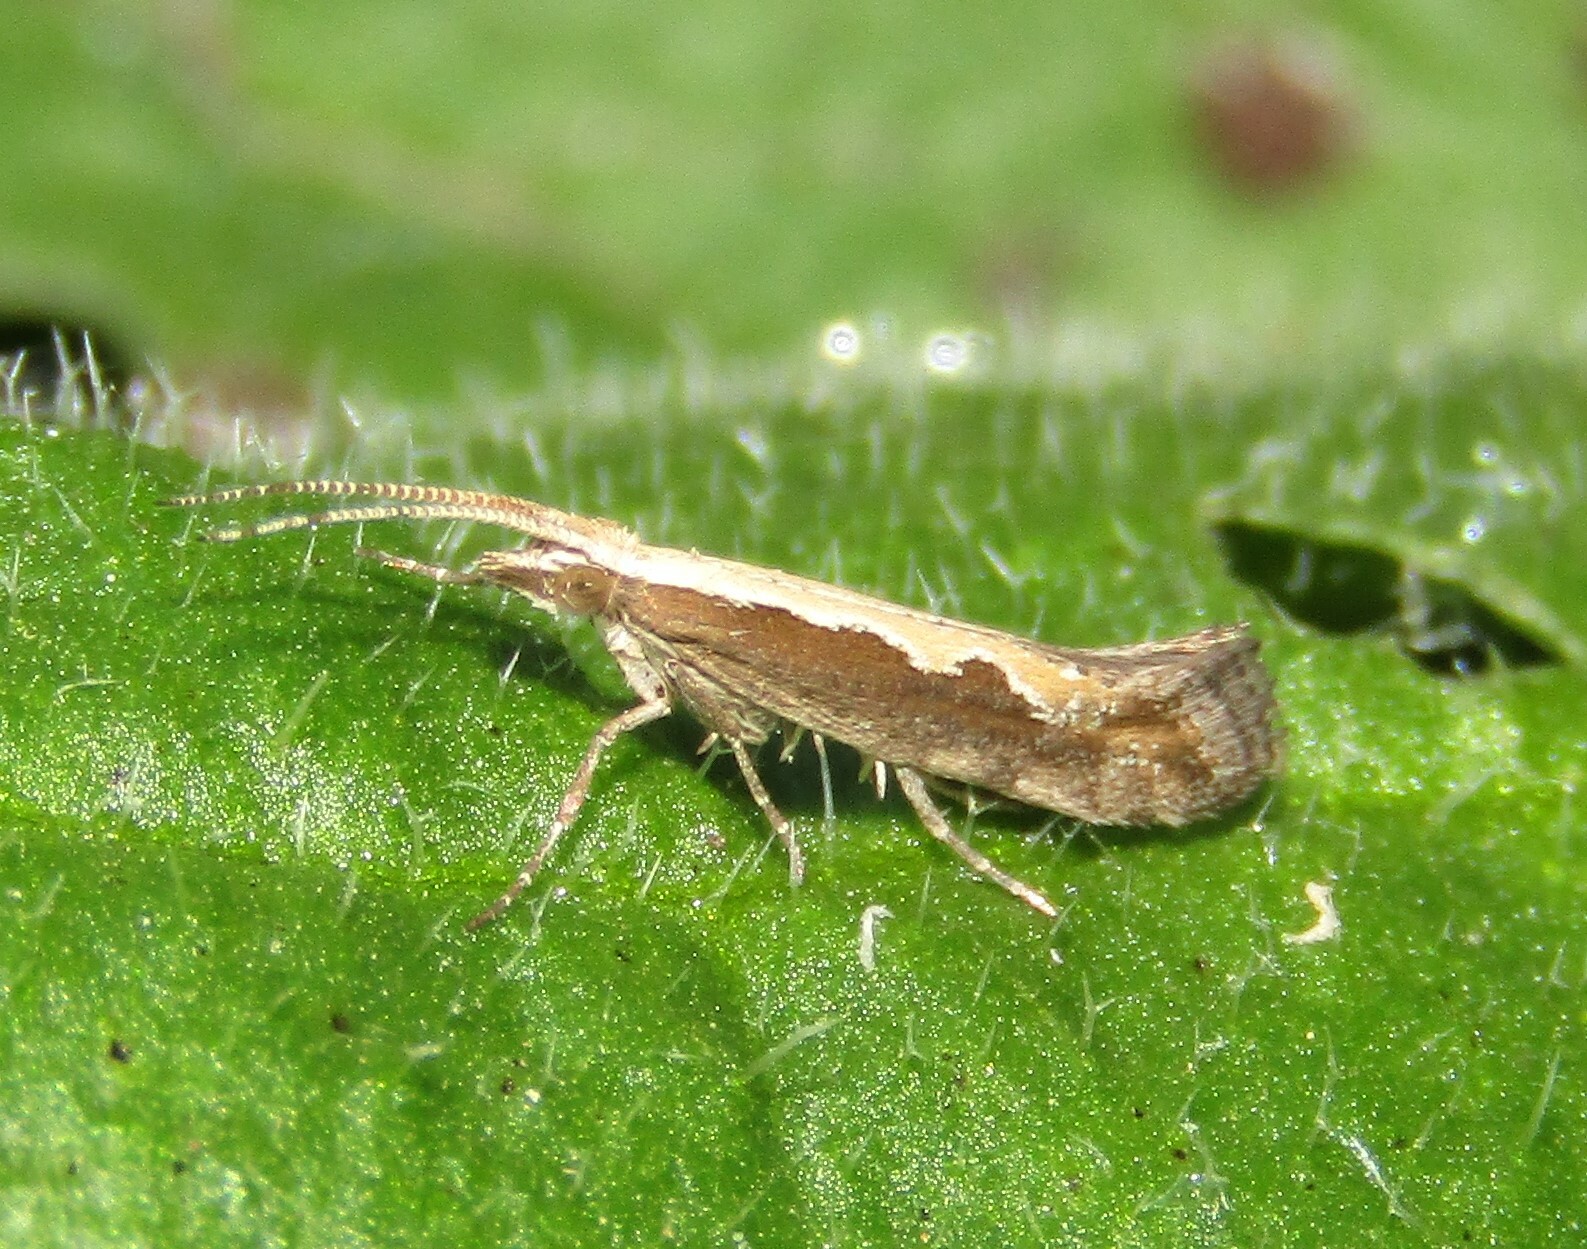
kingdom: Animalia
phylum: Arthropoda
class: Insecta
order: Lepidoptera
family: Plutellidae
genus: Plutella
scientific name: Plutella xylostella
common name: Diamond-back moth
